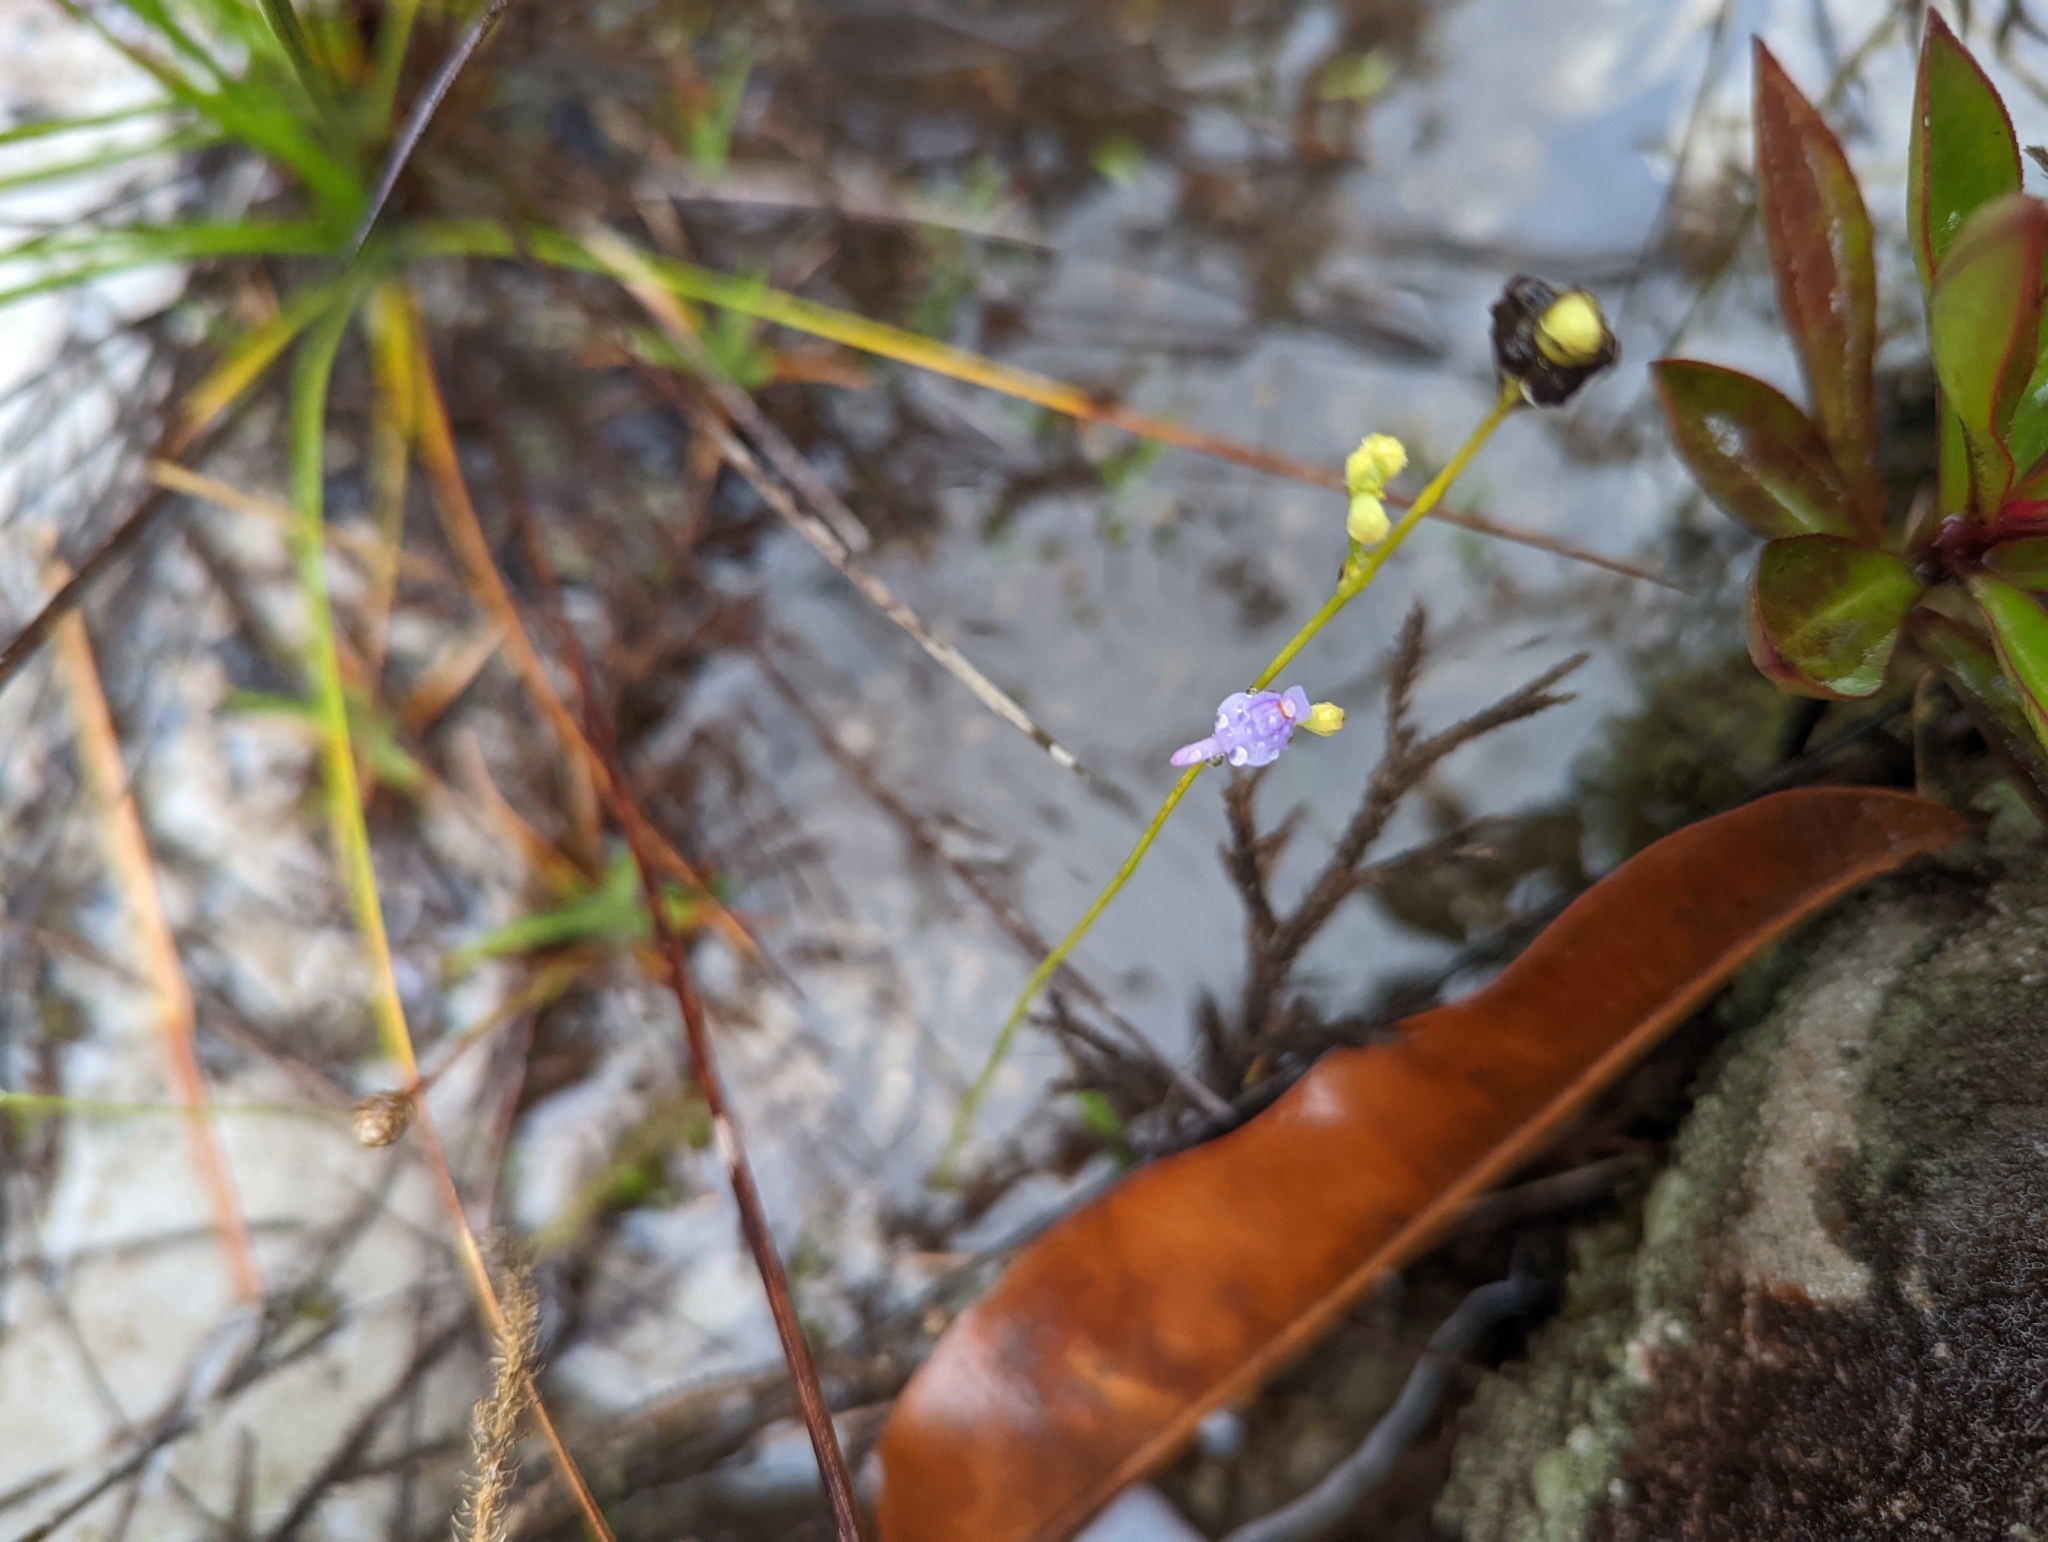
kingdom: Plantae
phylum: Tracheophyta
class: Magnoliopsida
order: Lamiales
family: Lentibulariaceae
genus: Utricularia
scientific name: Utricularia caerulea
